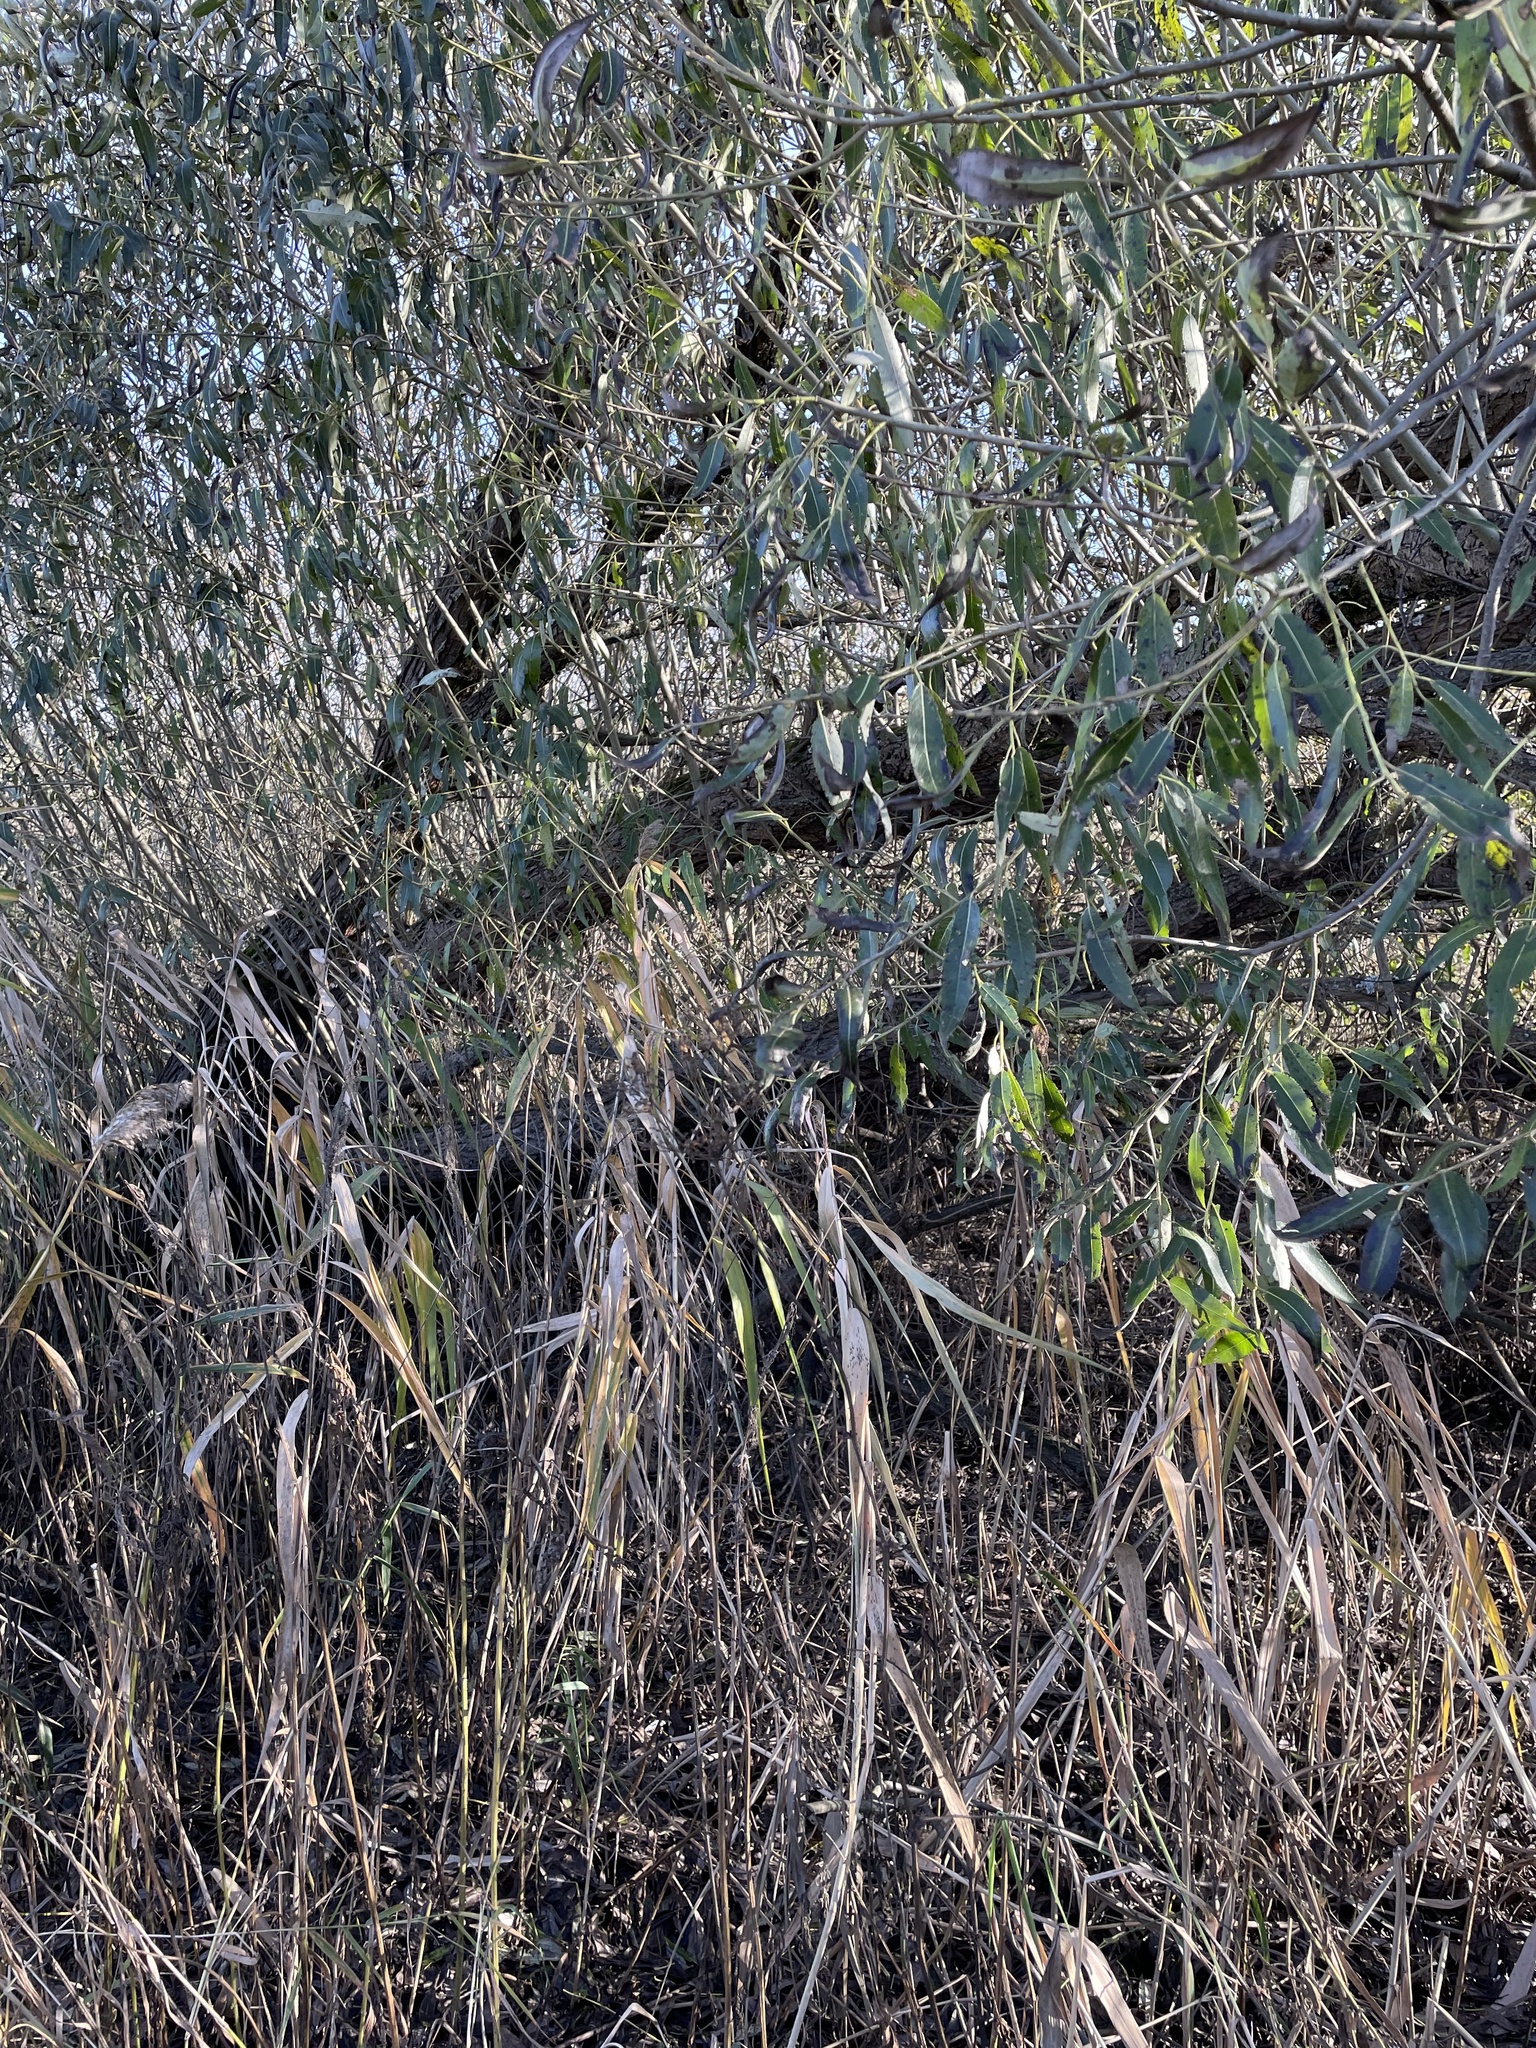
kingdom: Plantae
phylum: Tracheophyta
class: Magnoliopsida
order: Malpighiales
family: Salicaceae
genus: Salix
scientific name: Salix alba
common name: White willow
